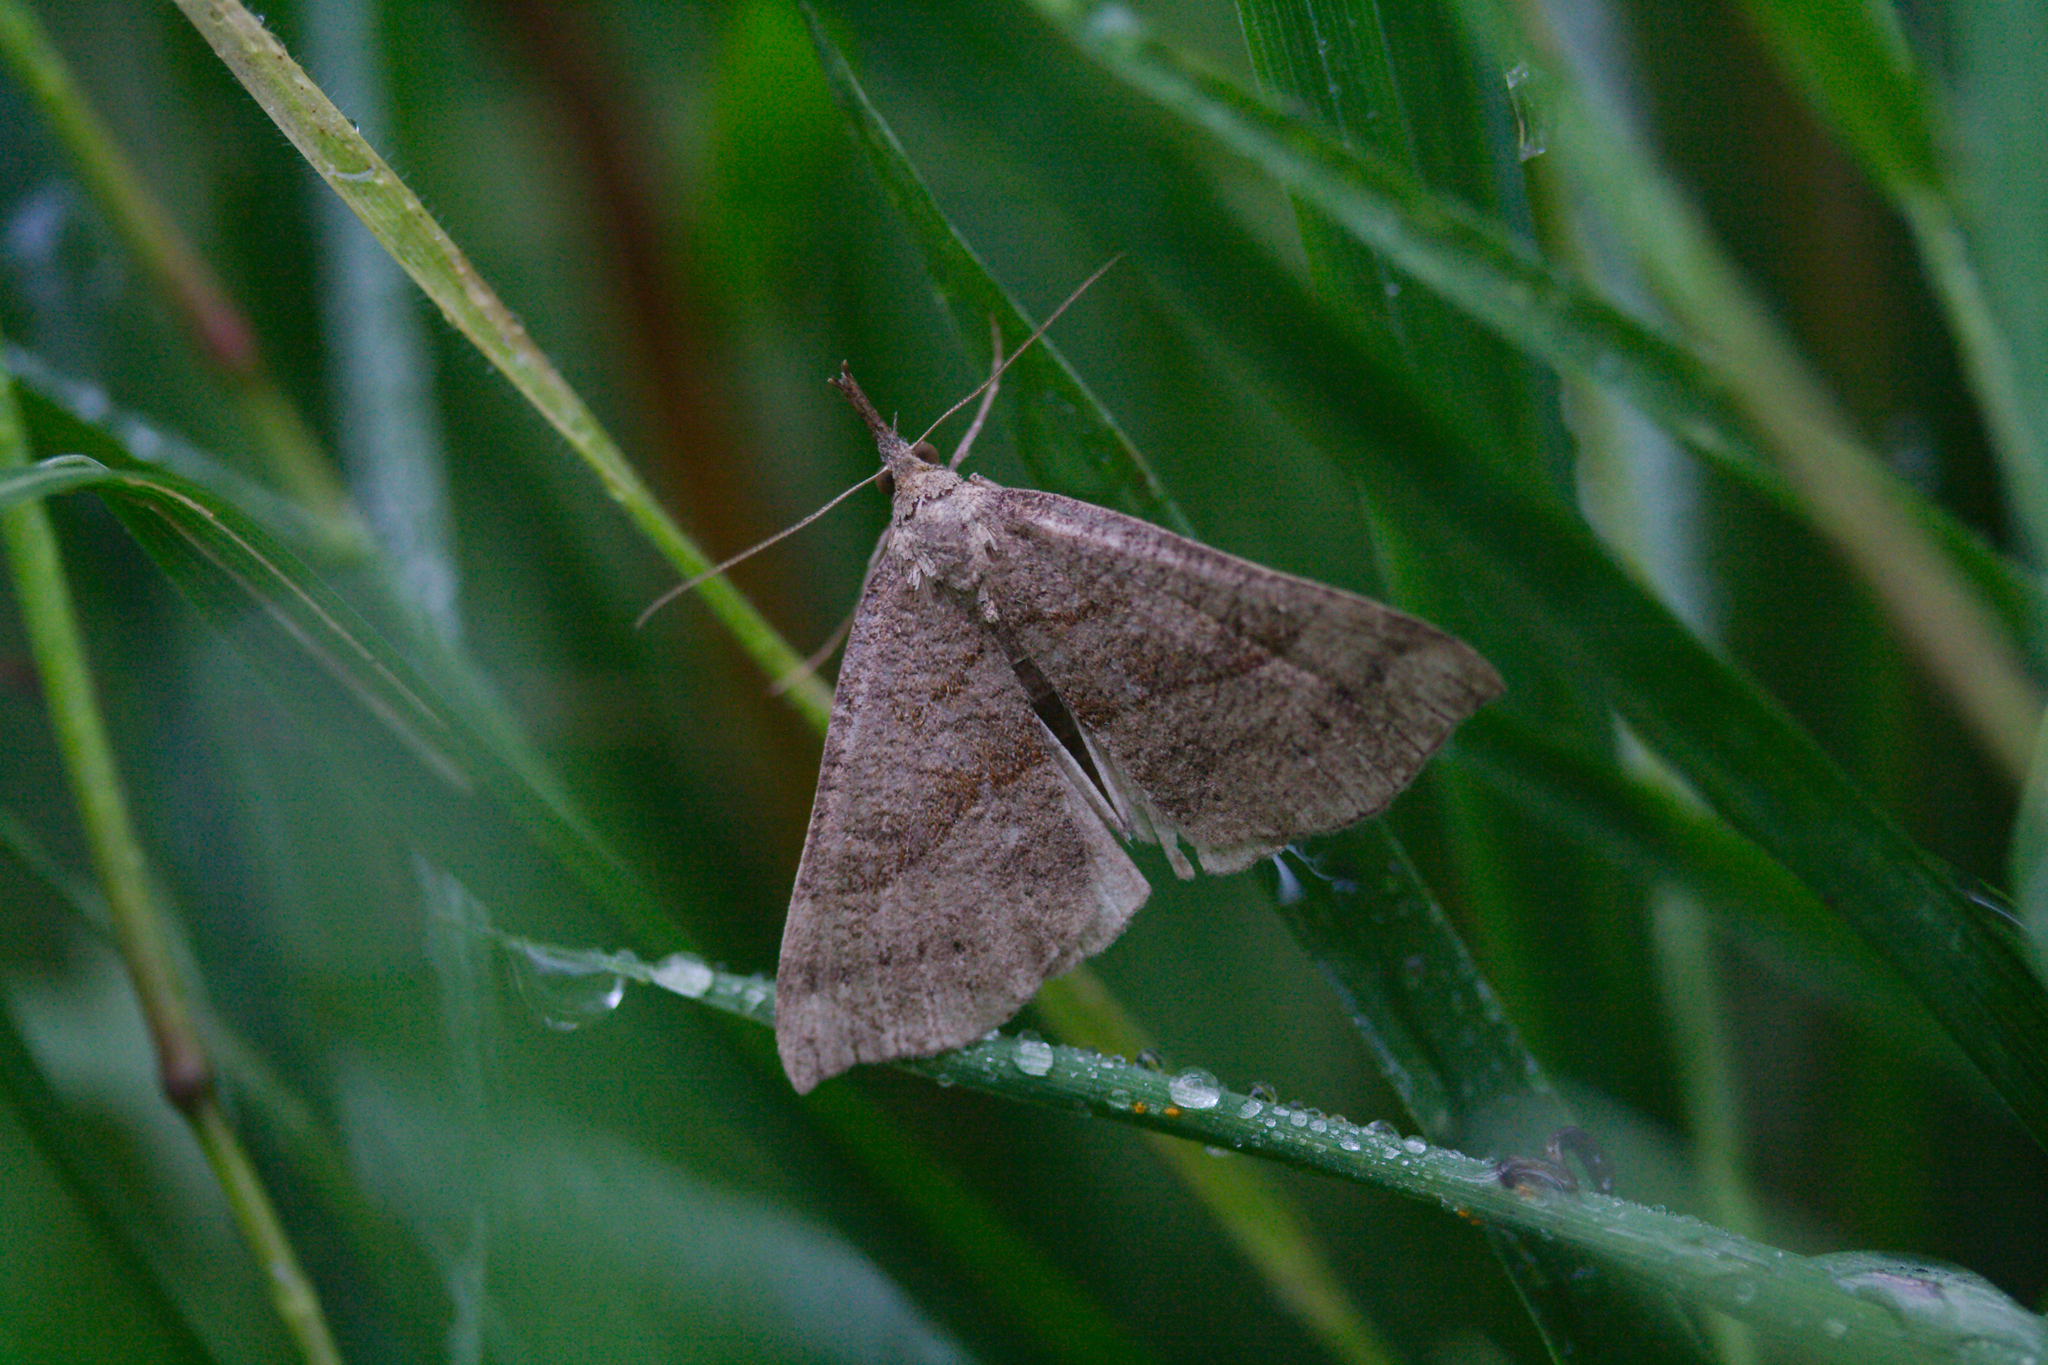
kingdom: Animalia
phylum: Arthropoda
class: Insecta
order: Lepidoptera
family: Erebidae
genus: Hypena
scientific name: Hypena proboscidalis
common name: Snout
